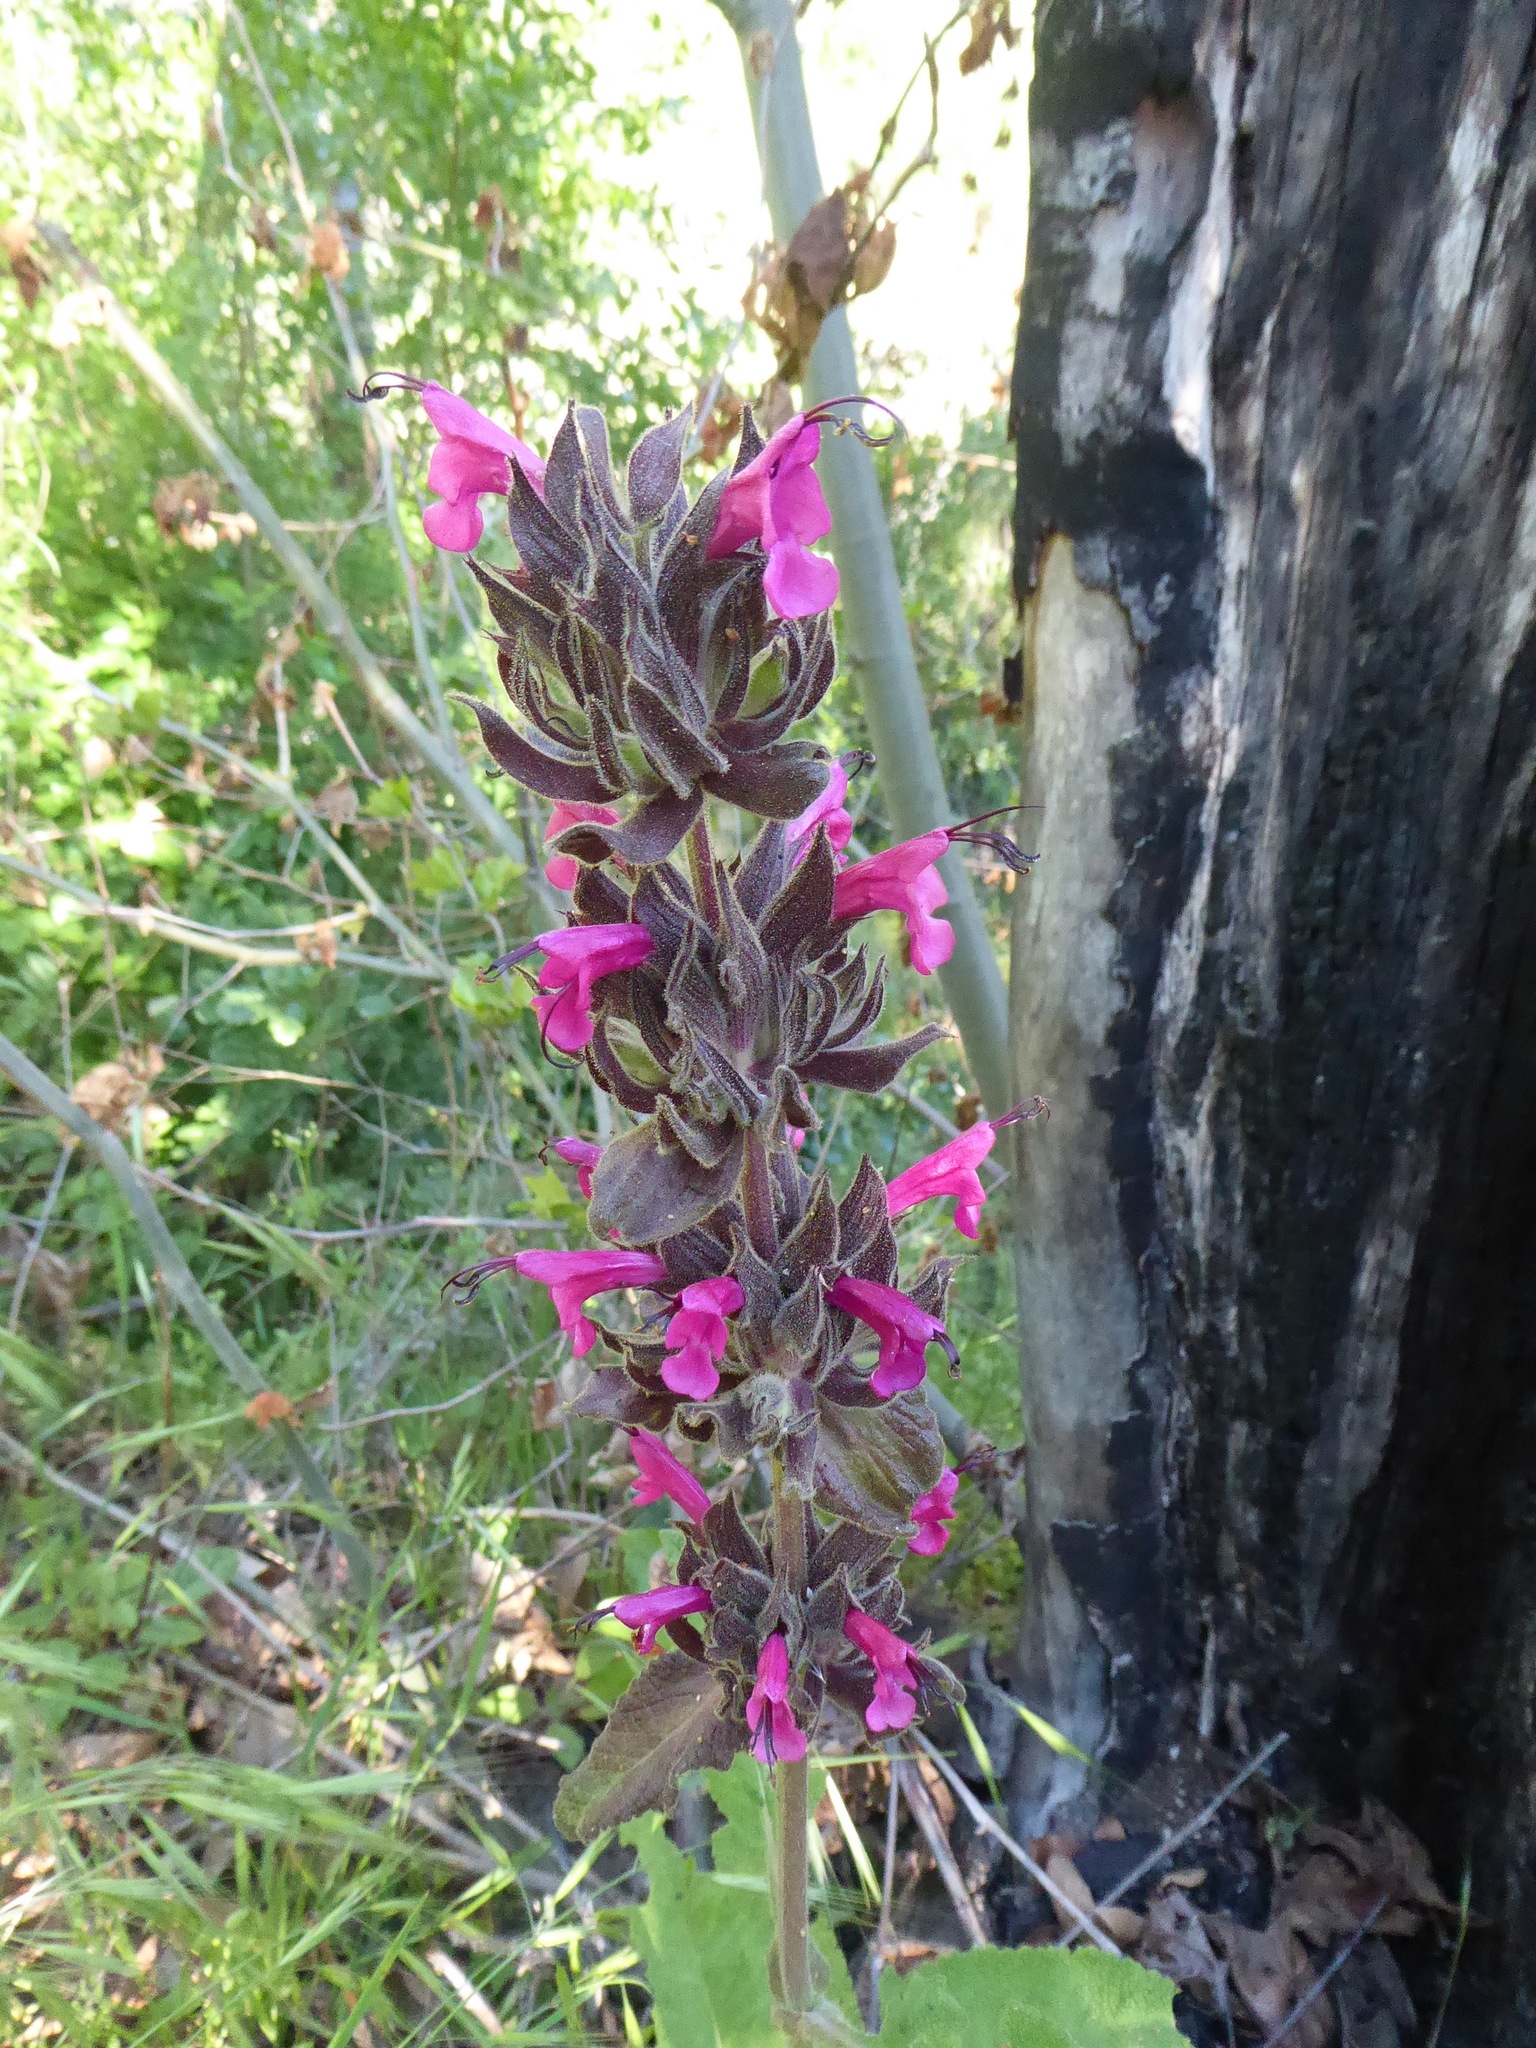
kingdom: Plantae
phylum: Tracheophyta
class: Magnoliopsida
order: Lamiales
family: Lamiaceae
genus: Salvia
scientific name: Salvia spathacea
